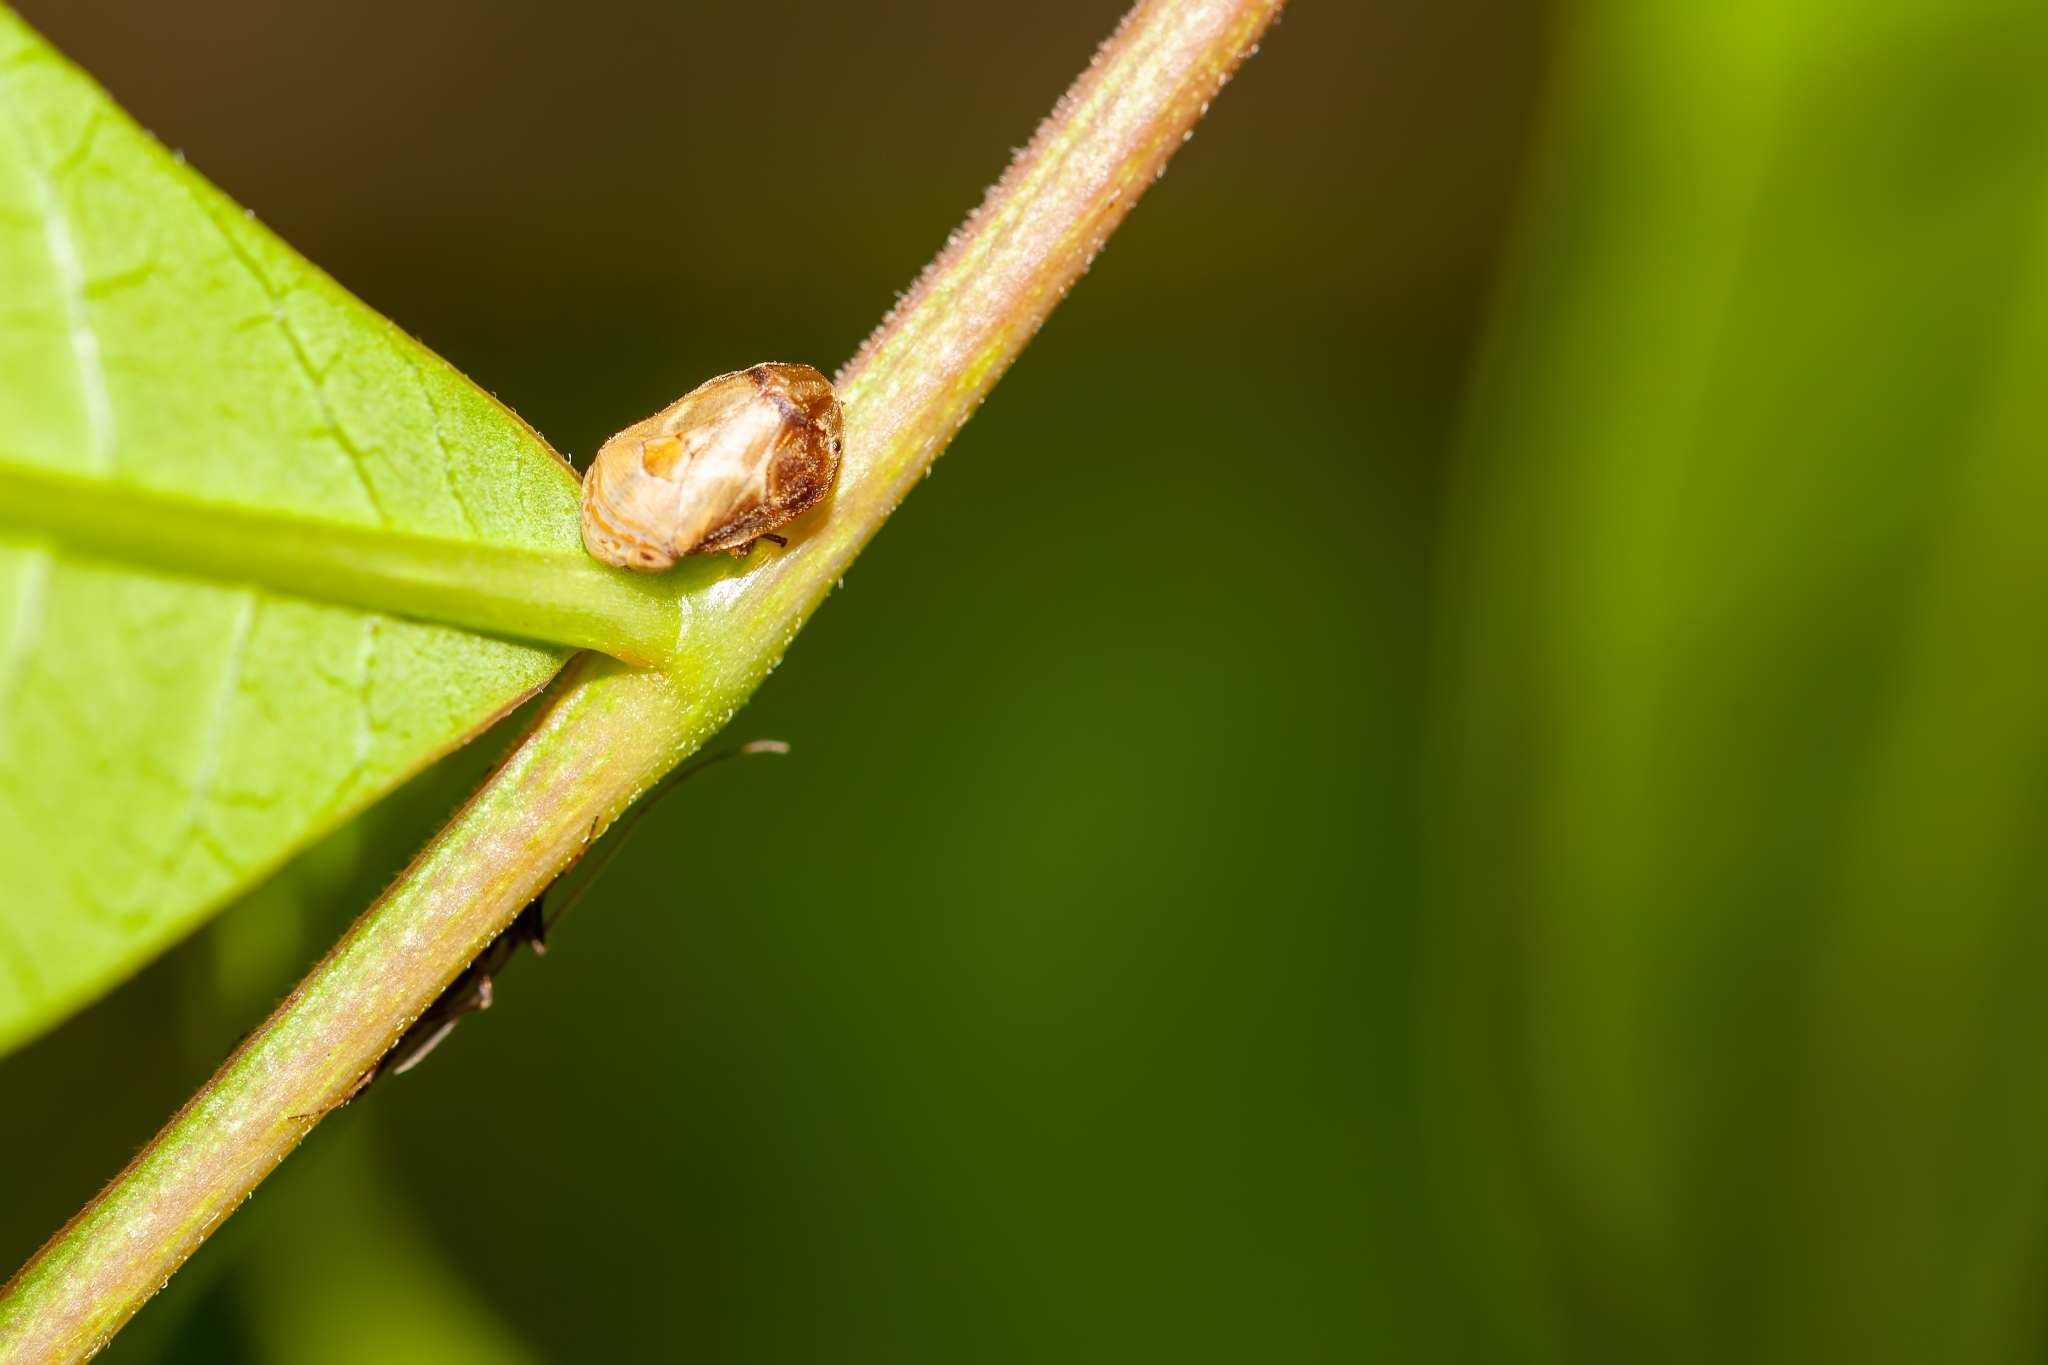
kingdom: Animalia
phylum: Arthropoda
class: Insecta
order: Hemiptera
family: Clastopteridae
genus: Clastoptera
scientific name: Clastoptera querci
